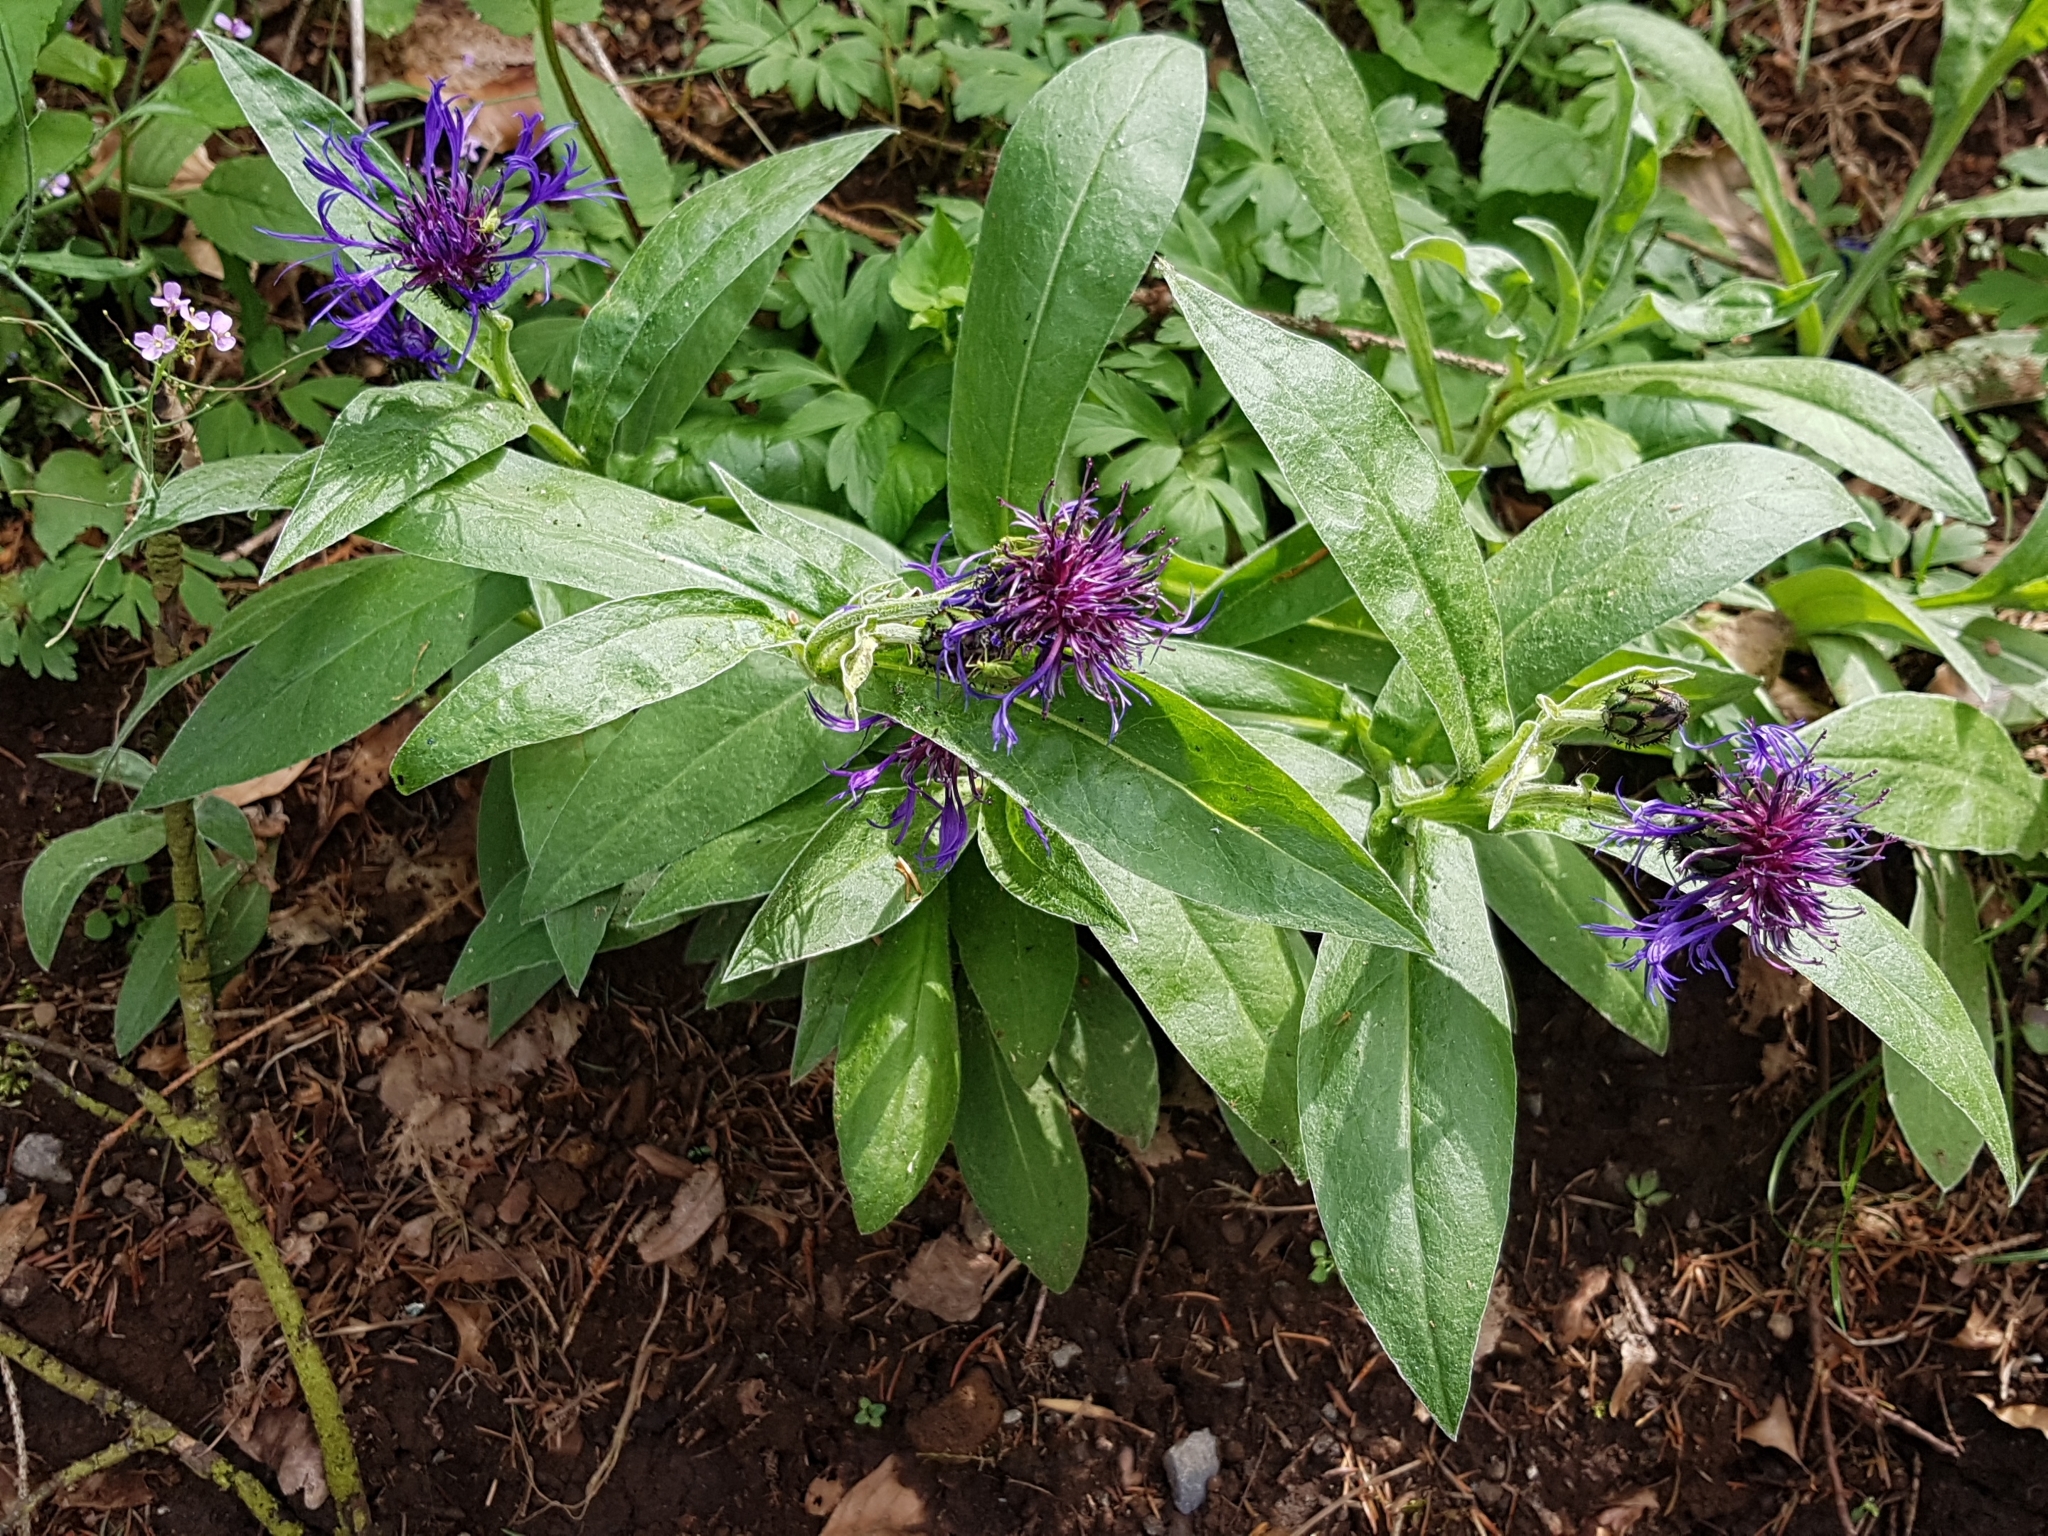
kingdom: Plantae
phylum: Tracheophyta
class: Magnoliopsida
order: Asterales
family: Asteraceae
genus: Centaurea
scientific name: Centaurea montana
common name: Perennial cornflower
